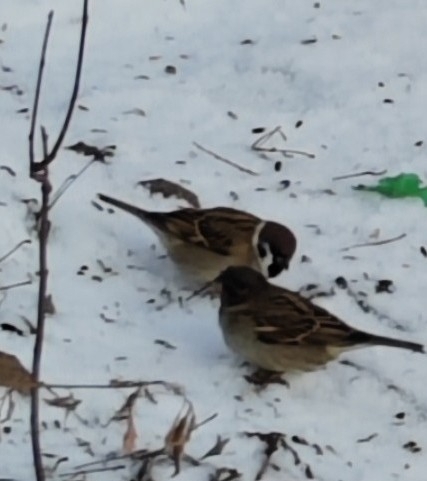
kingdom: Animalia
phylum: Chordata
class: Aves
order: Passeriformes
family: Passeridae
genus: Passer
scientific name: Passer montanus
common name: Eurasian tree sparrow
